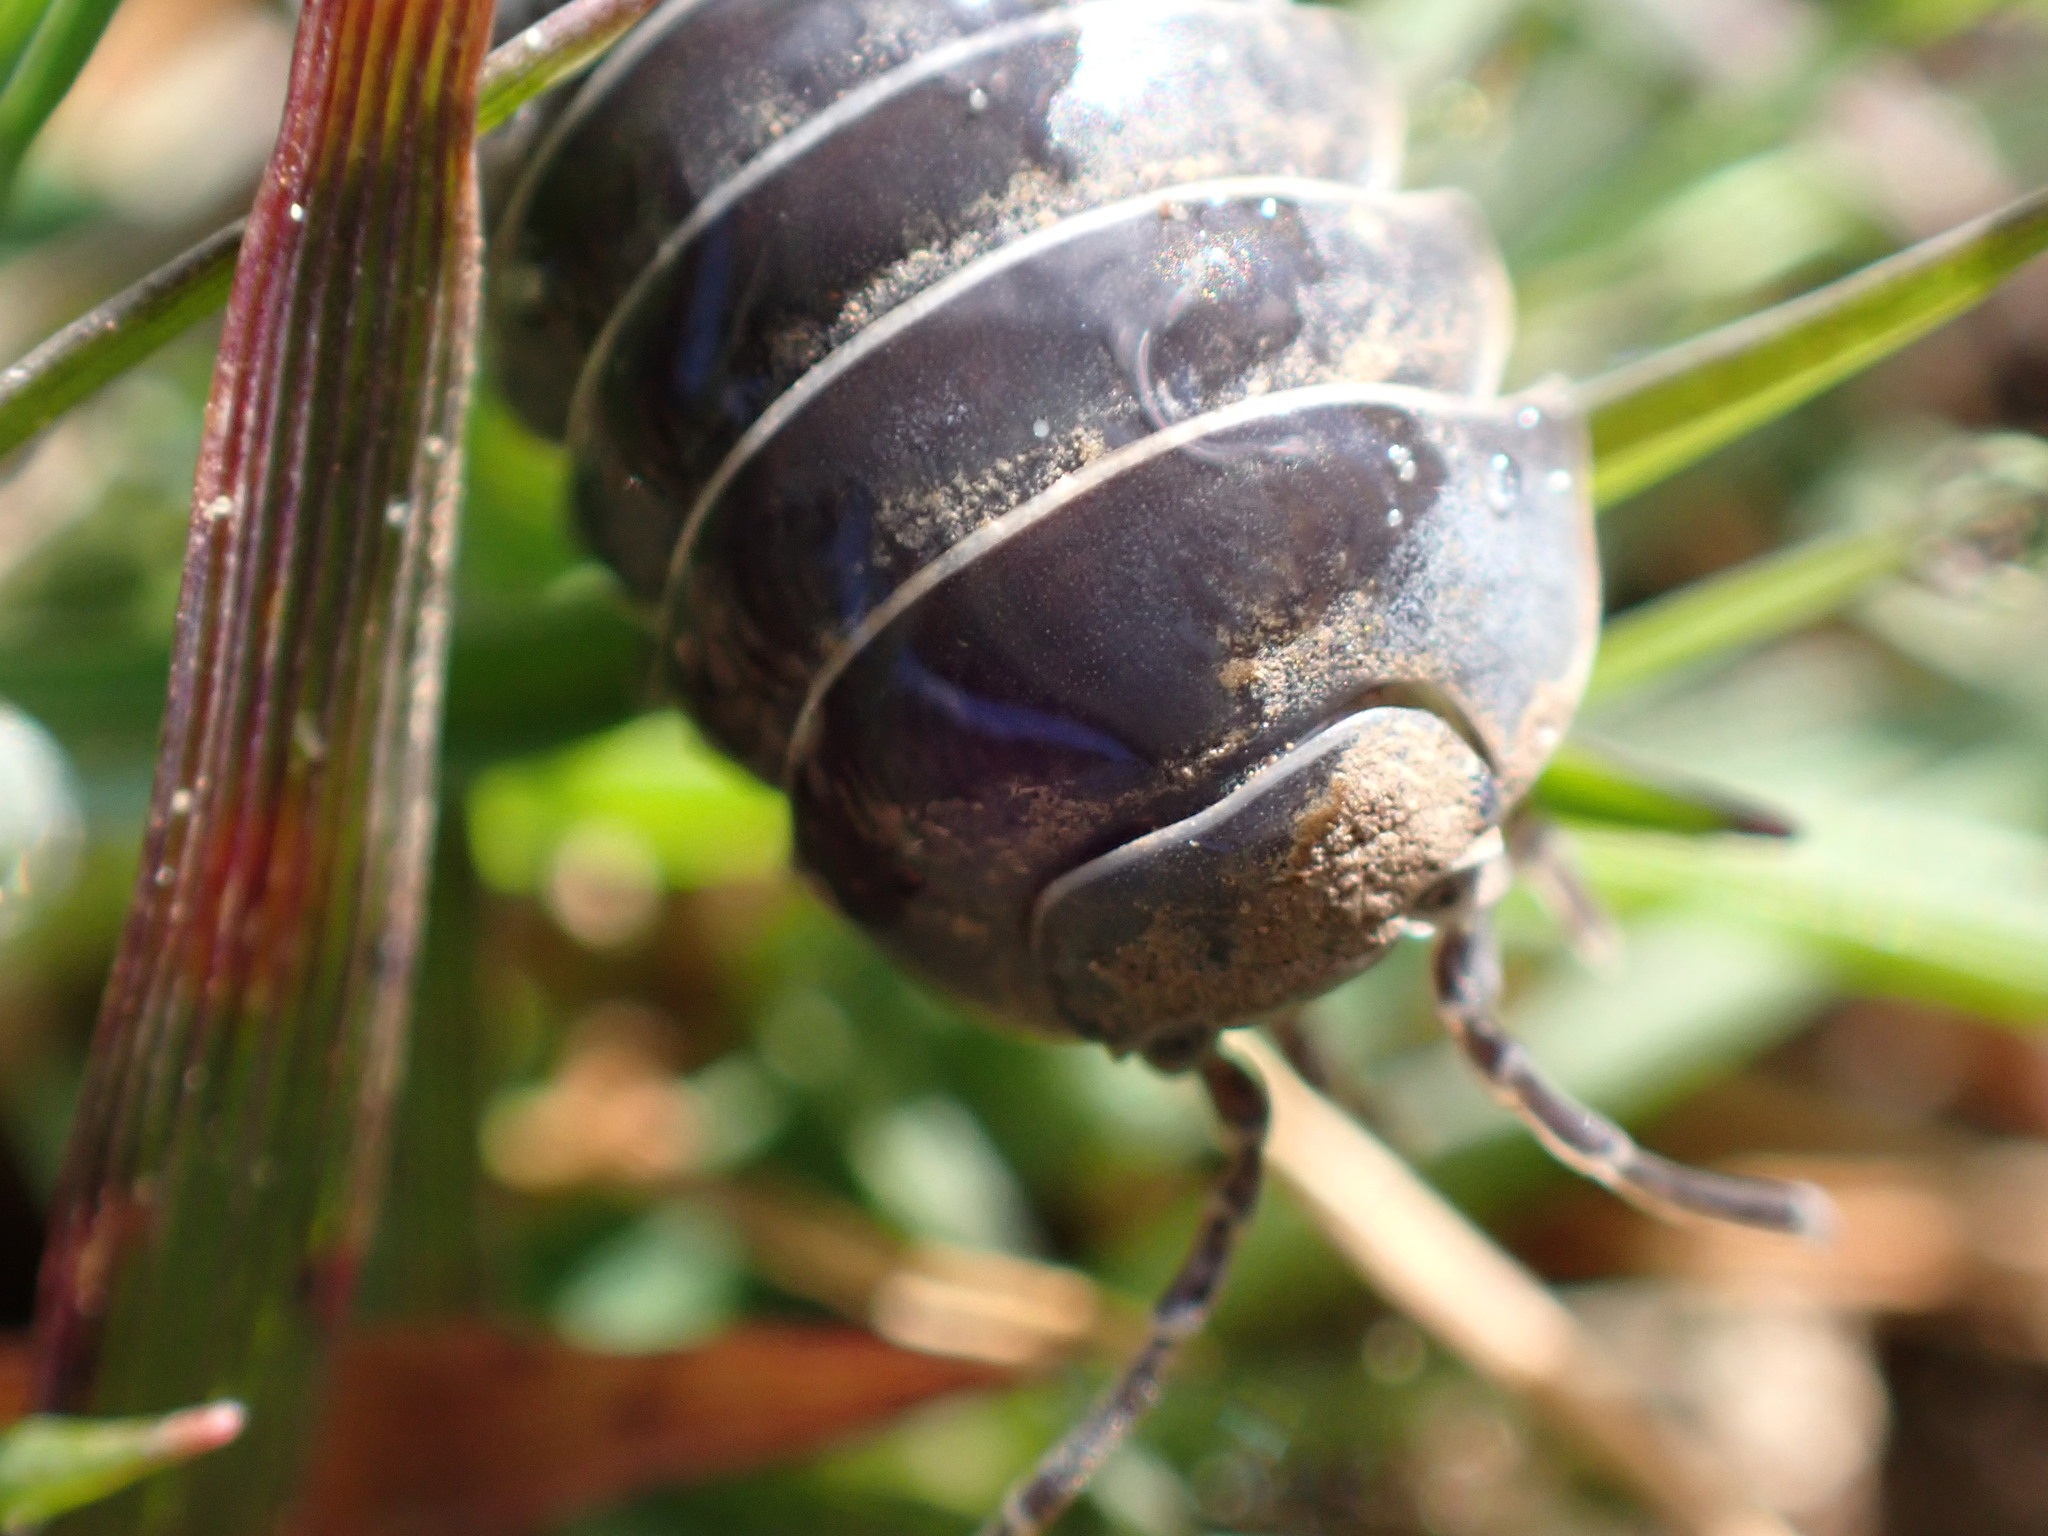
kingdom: Animalia
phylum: Arthropoda
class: Malacostraca
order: Isopoda
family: Armadillidiidae
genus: Armadillidium
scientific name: Armadillidium vulgare
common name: Common pill woodlouse
